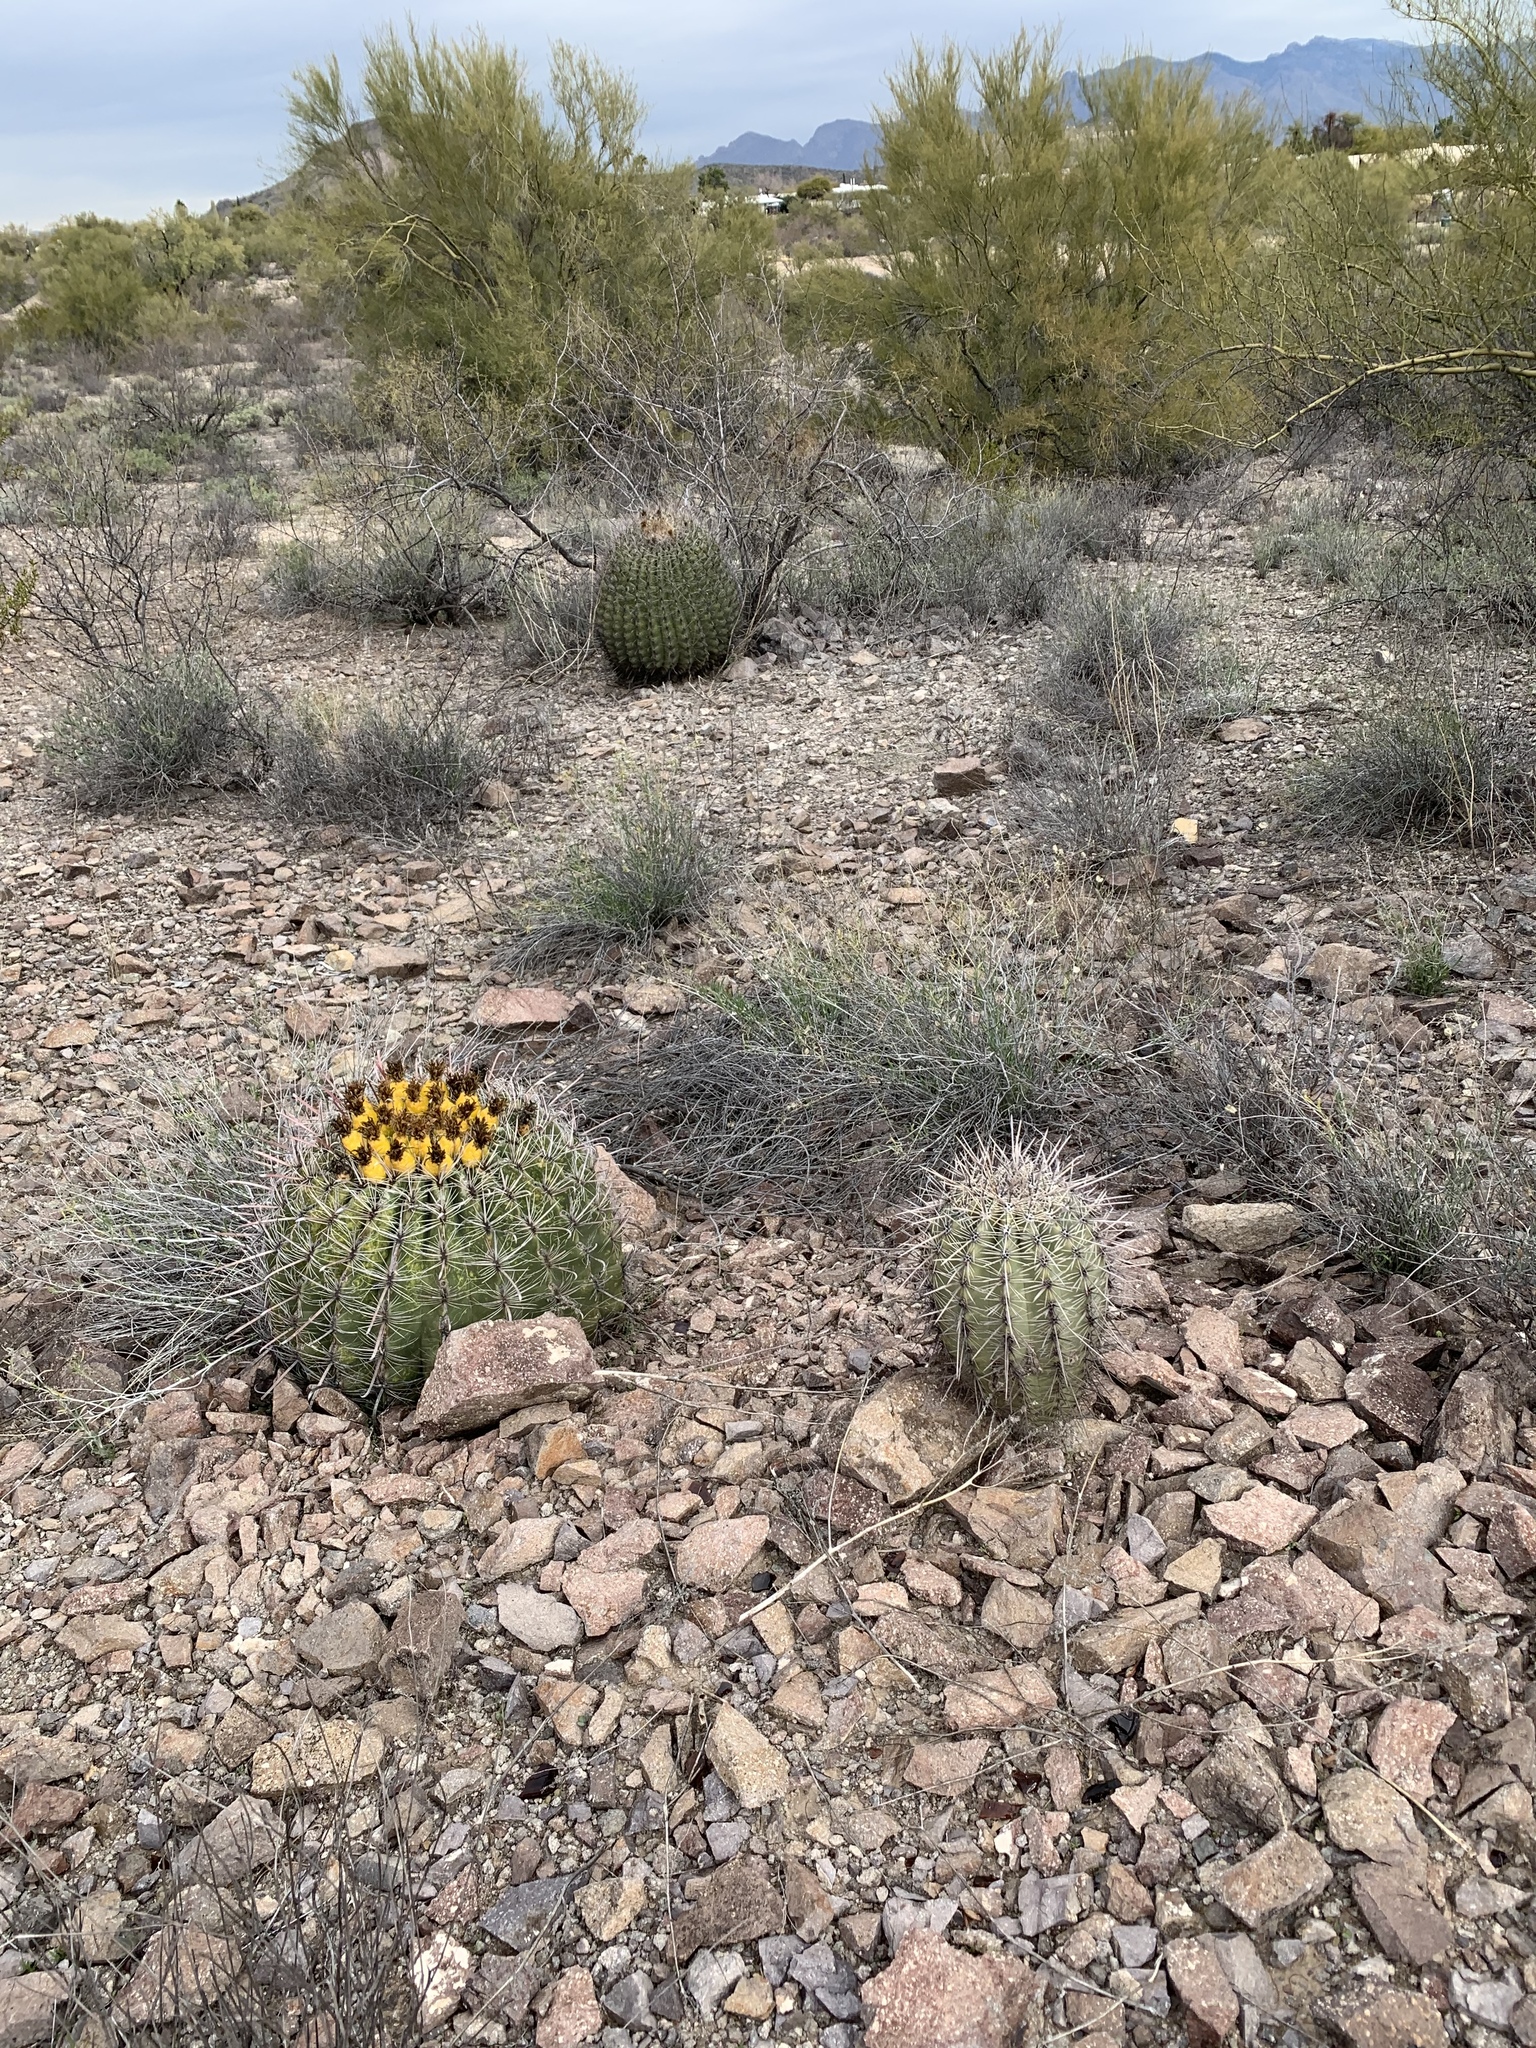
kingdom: Plantae
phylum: Tracheophyta
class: Magnoliopsida
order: Caryophyllales
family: Cactaceae
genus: Ferocactus
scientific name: Ferocactus wislizeni
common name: Candy barrel cactus
